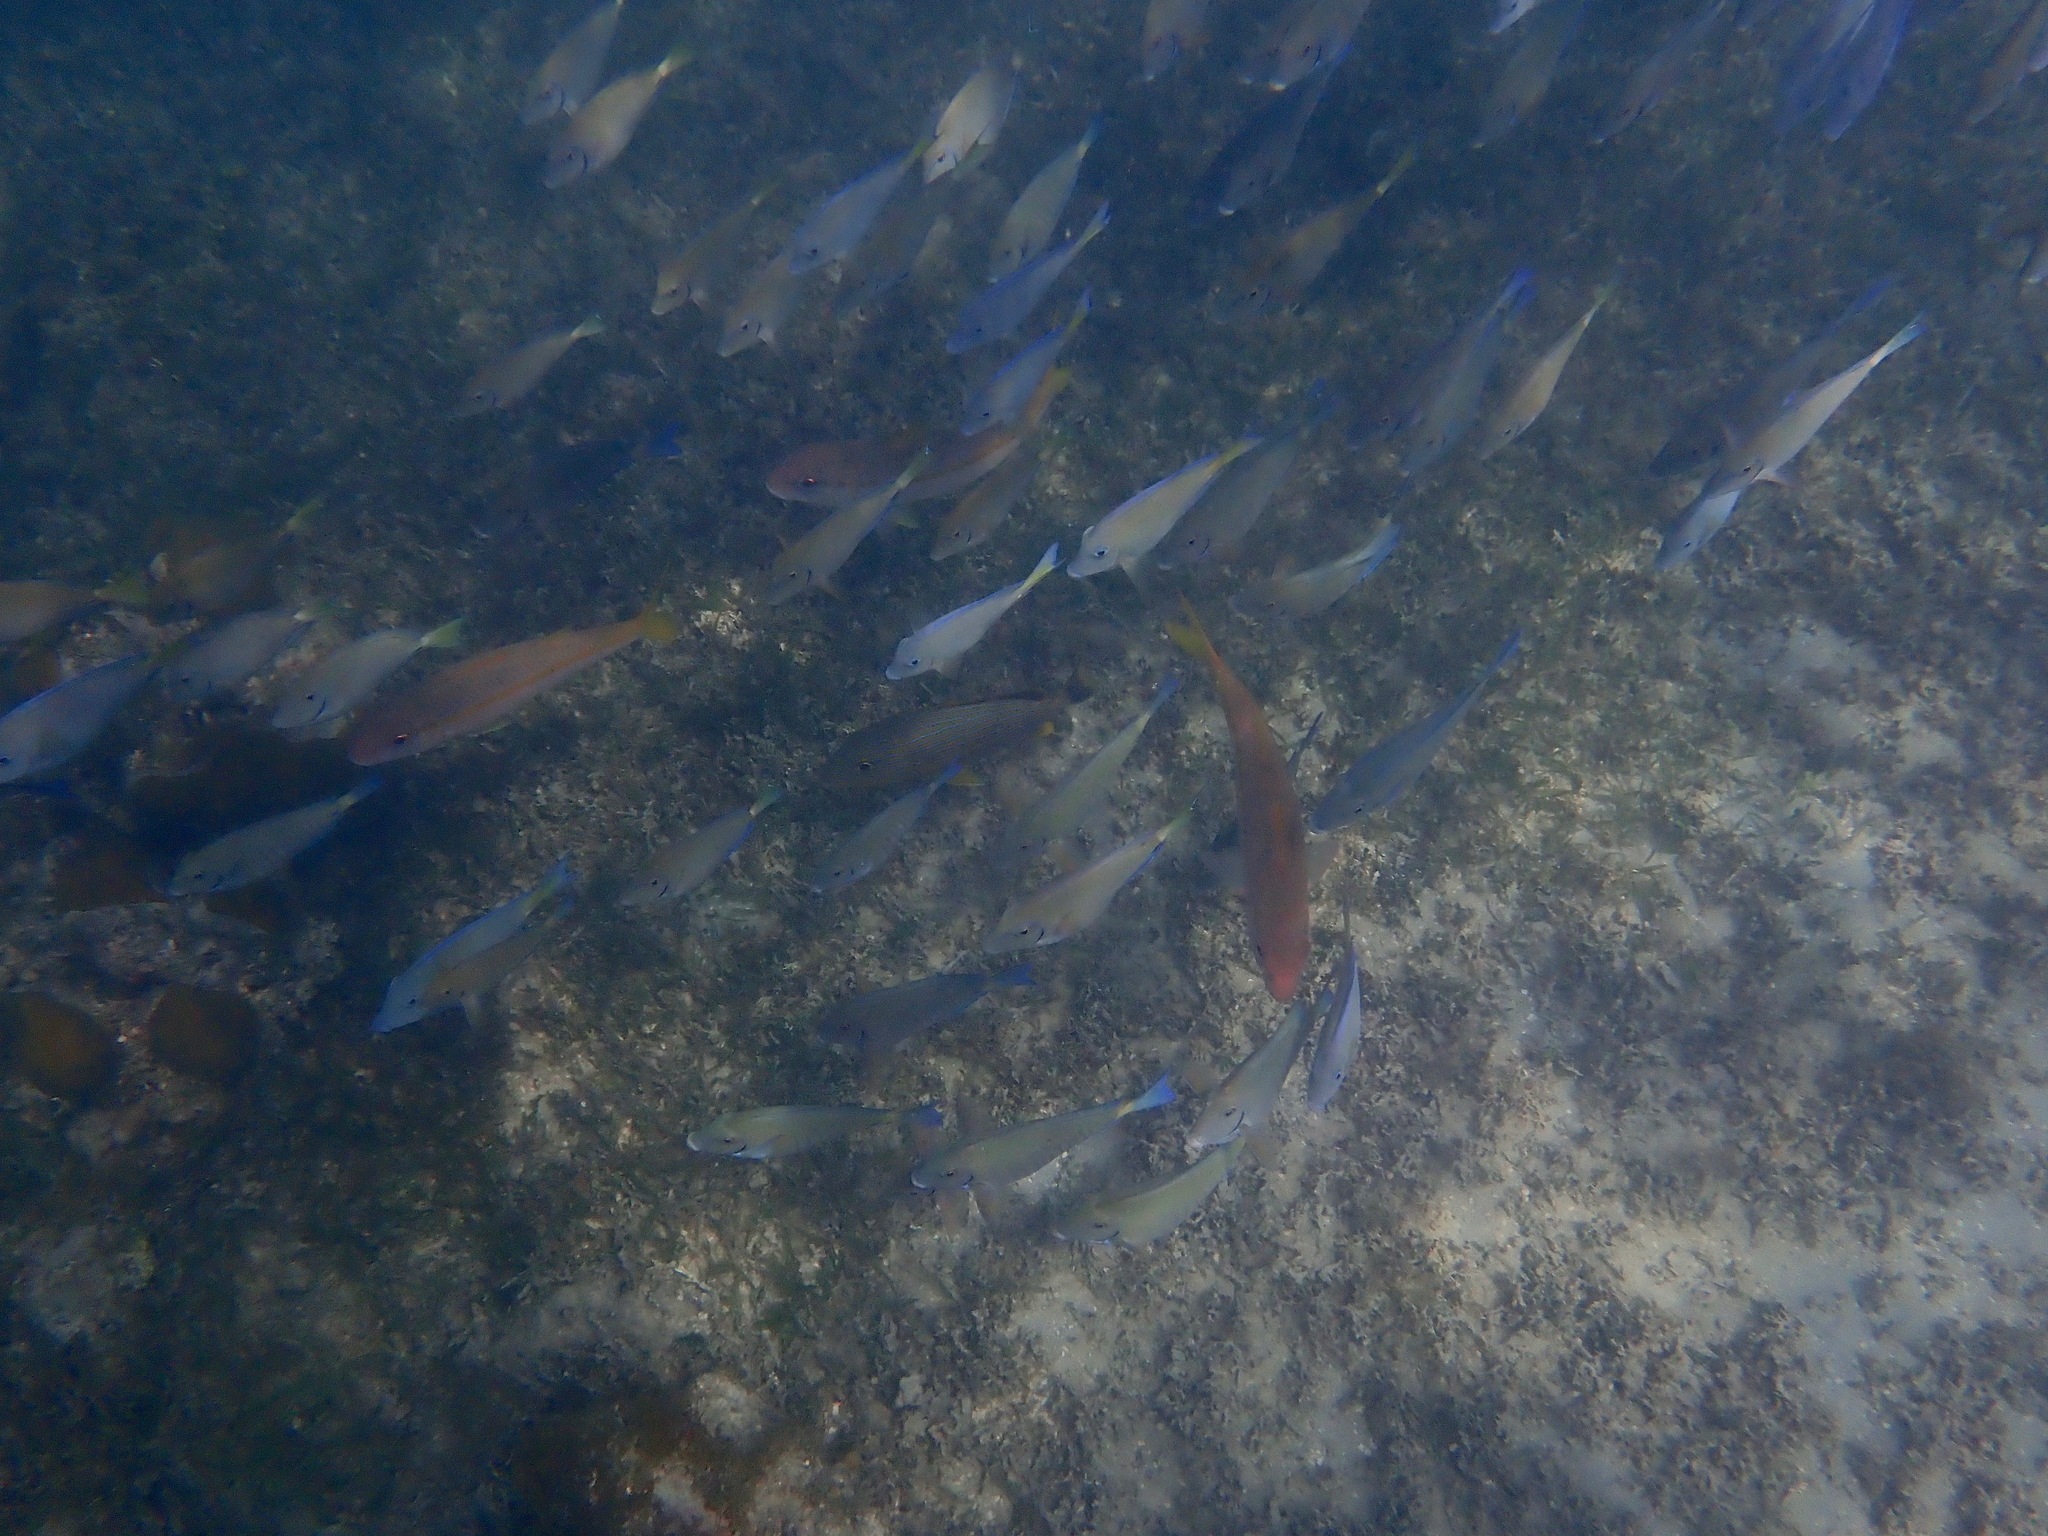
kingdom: Animalia
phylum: Chordata
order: Perciformes
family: Mullidae
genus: Mulloidichthys
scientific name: Mulloidichthys martinicus
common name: Yellow goatfish
